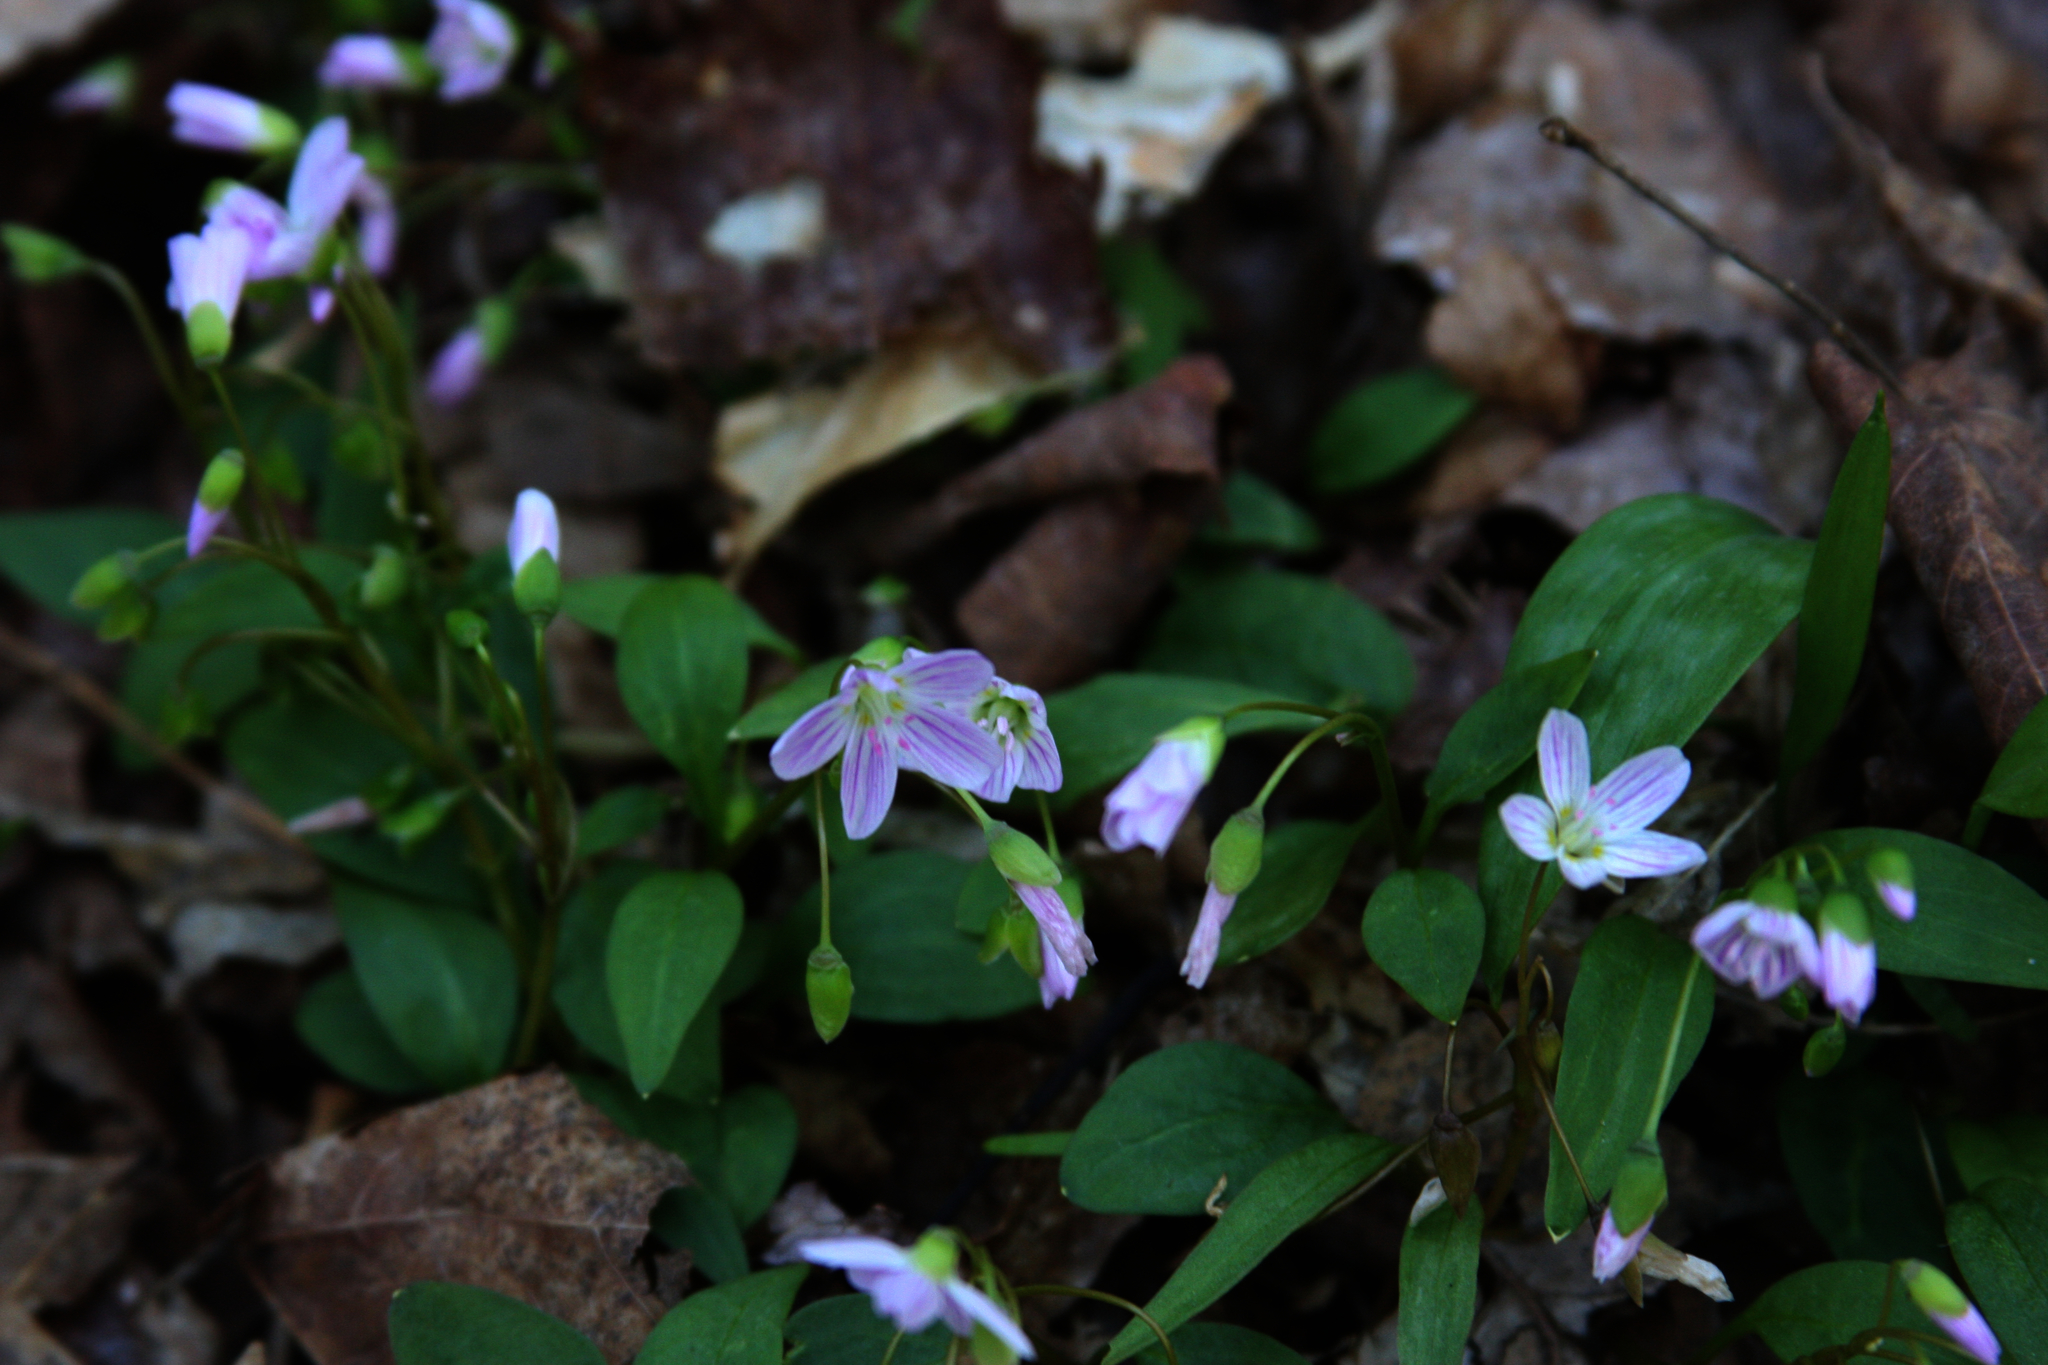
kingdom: Plantae
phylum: Tracheophyta
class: Magnoliopsida
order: Caryophyllales
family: Montiaceae
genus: Claytonia
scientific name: Claytonia caroliniana
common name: Carolina spring beauty
